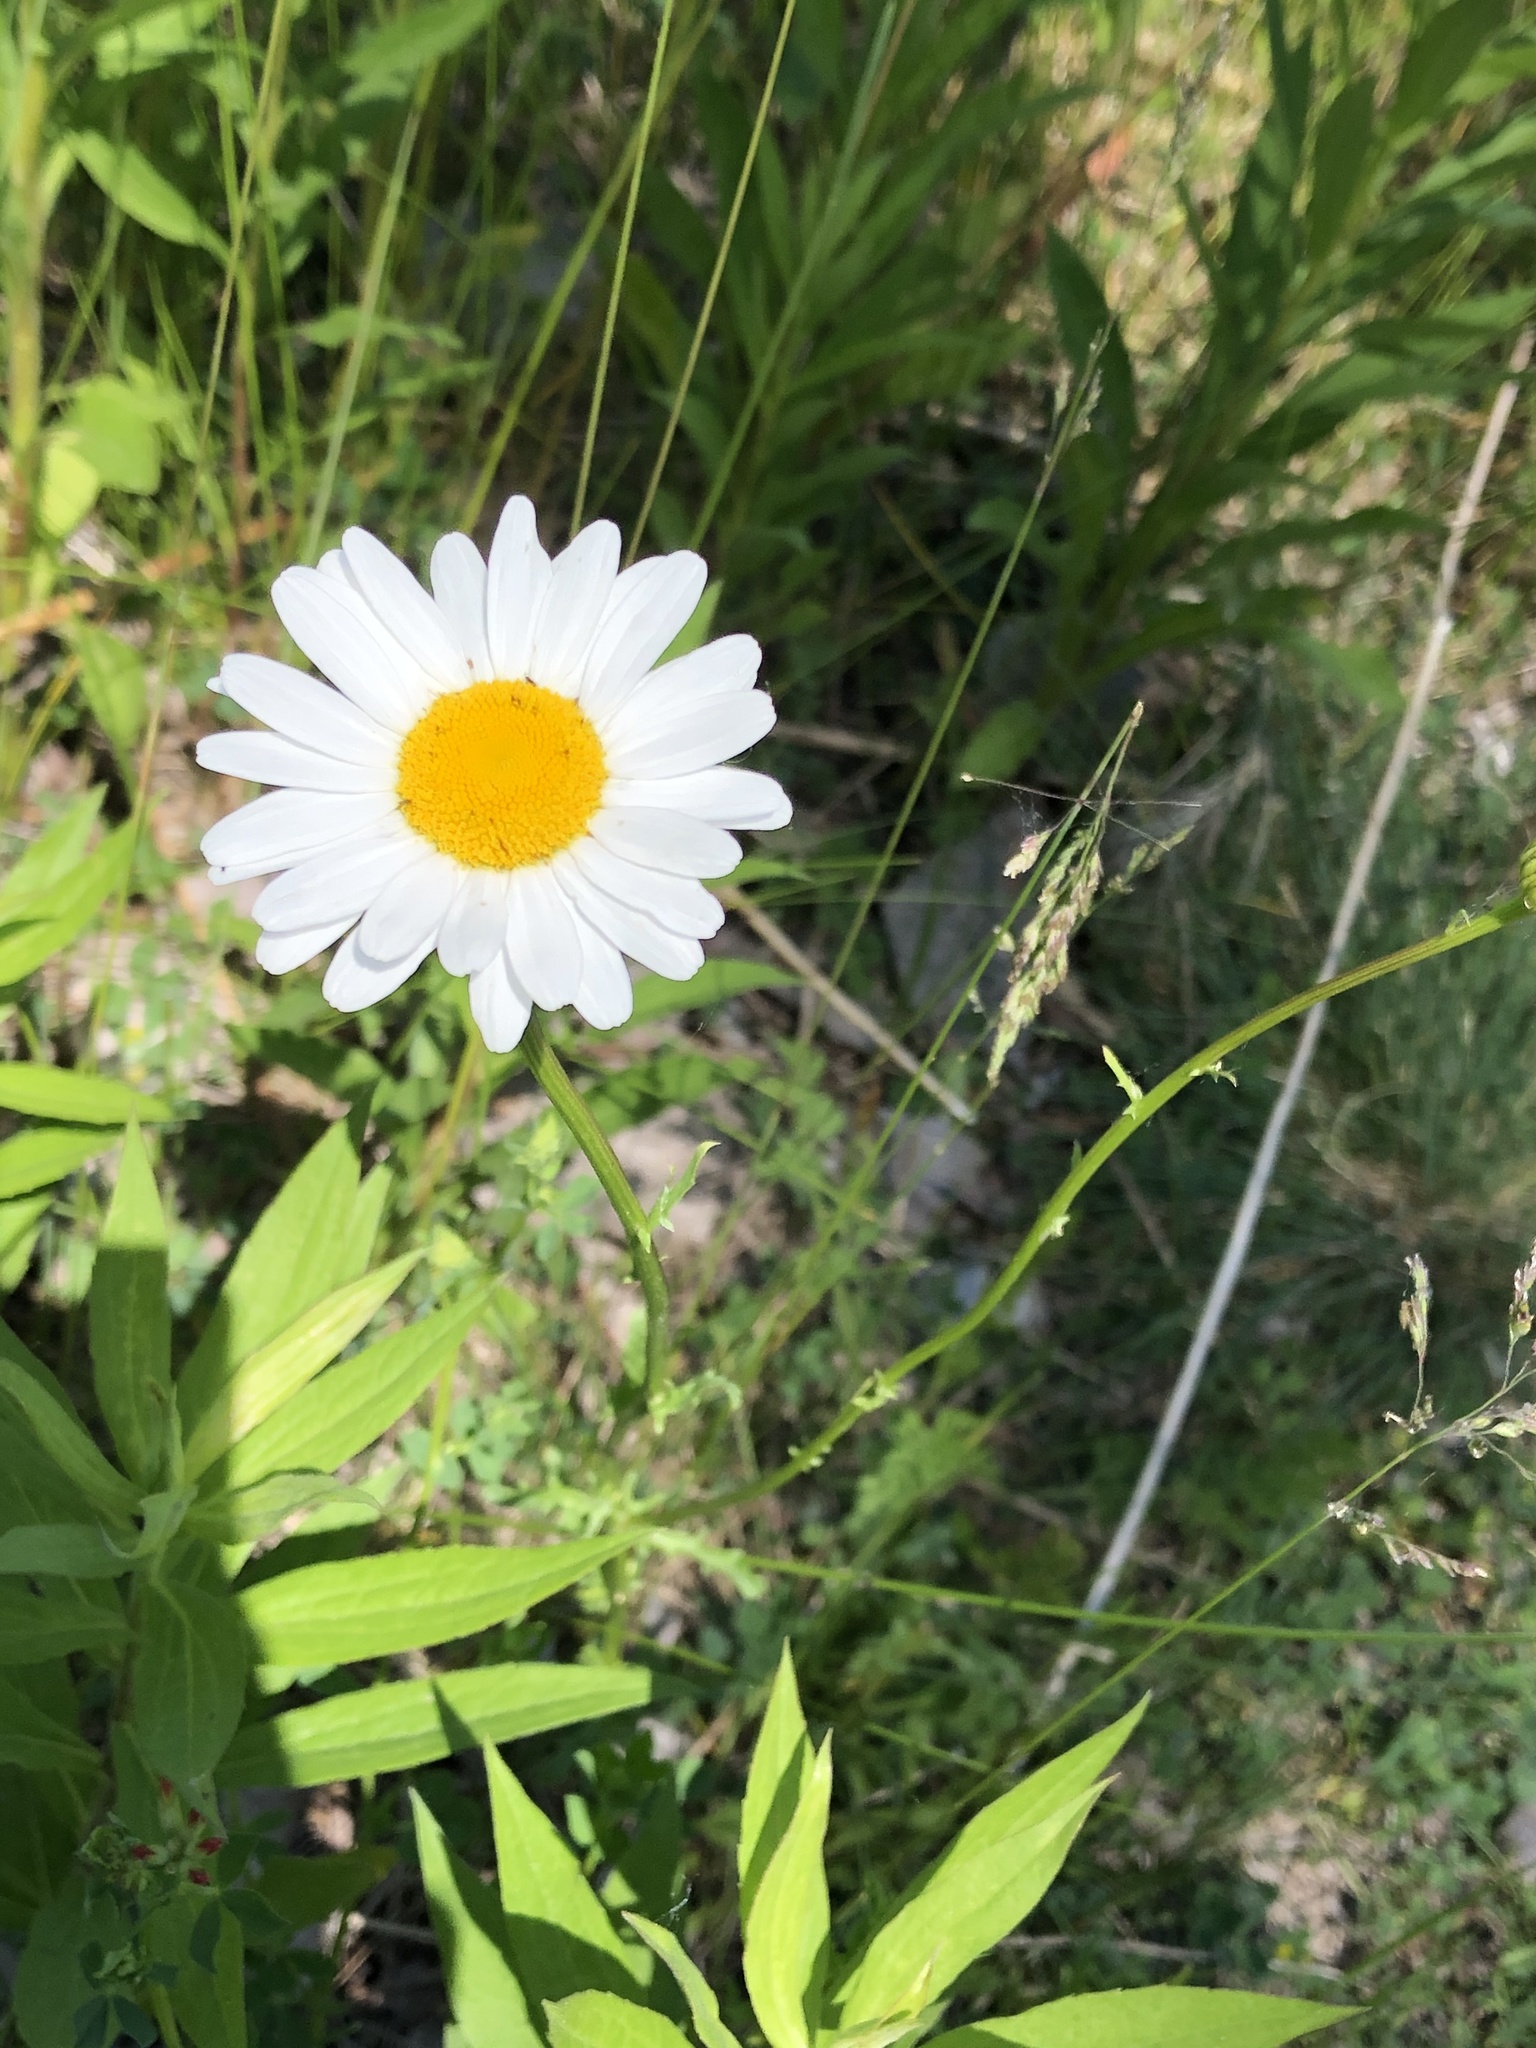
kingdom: Plantae
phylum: Tracheophyta
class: Magnoliopsida
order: Asterales
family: Asteraceae
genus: Leucanthemum
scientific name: Leucanthemum vulgare
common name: Oxeye daisy
